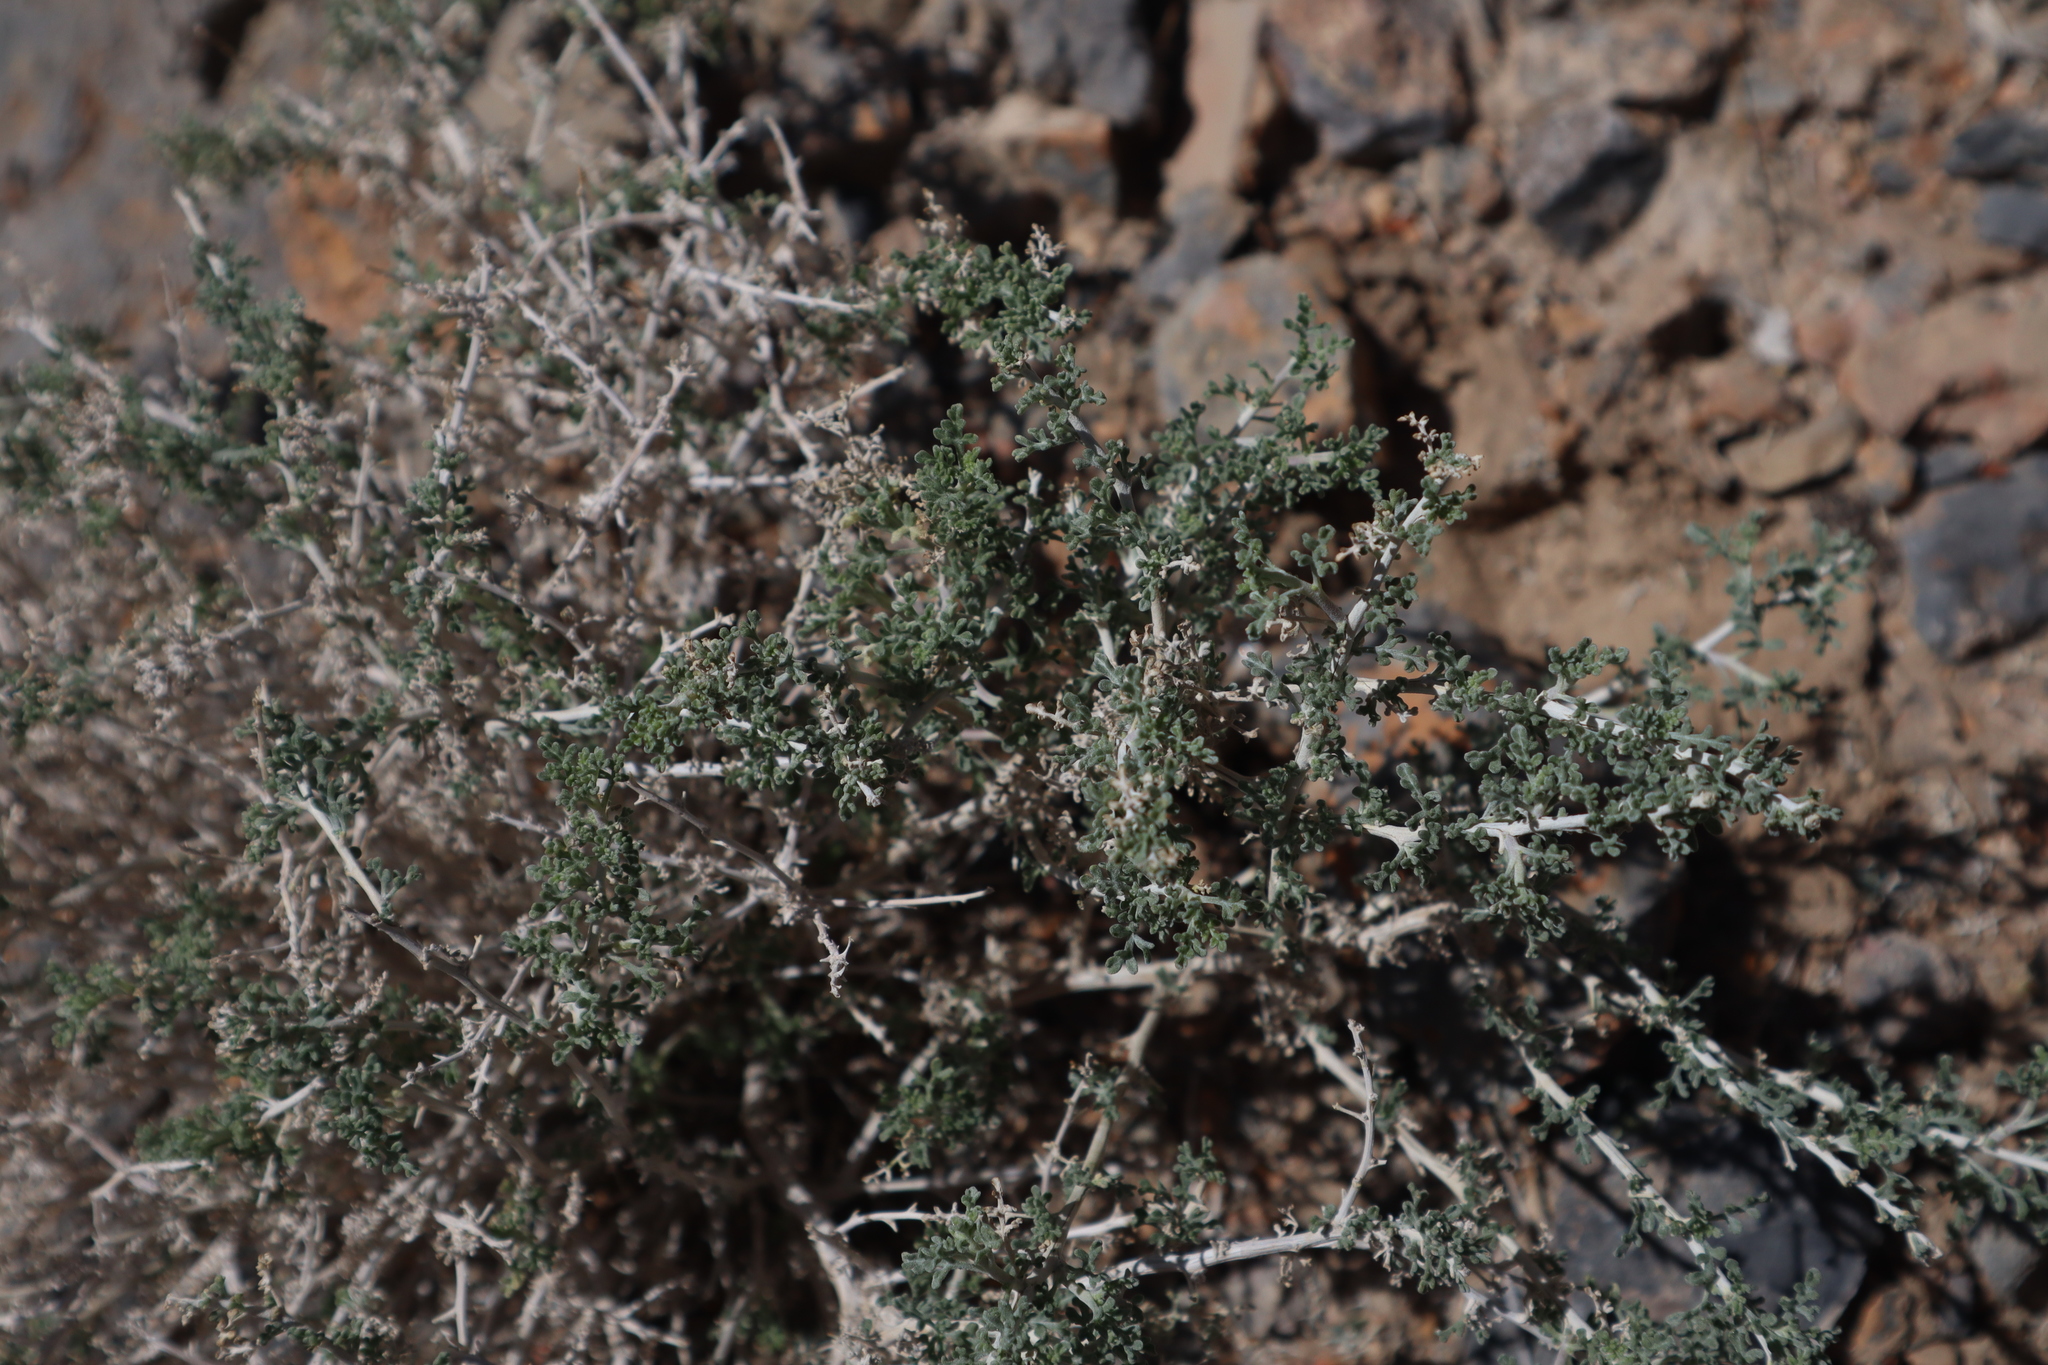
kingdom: Plantae
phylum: Tracheophyta
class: Magnoliopsida
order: Asterales
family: Asteraceae
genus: Ambrosia
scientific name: Ambrosia dumosa
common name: Bur-sage
